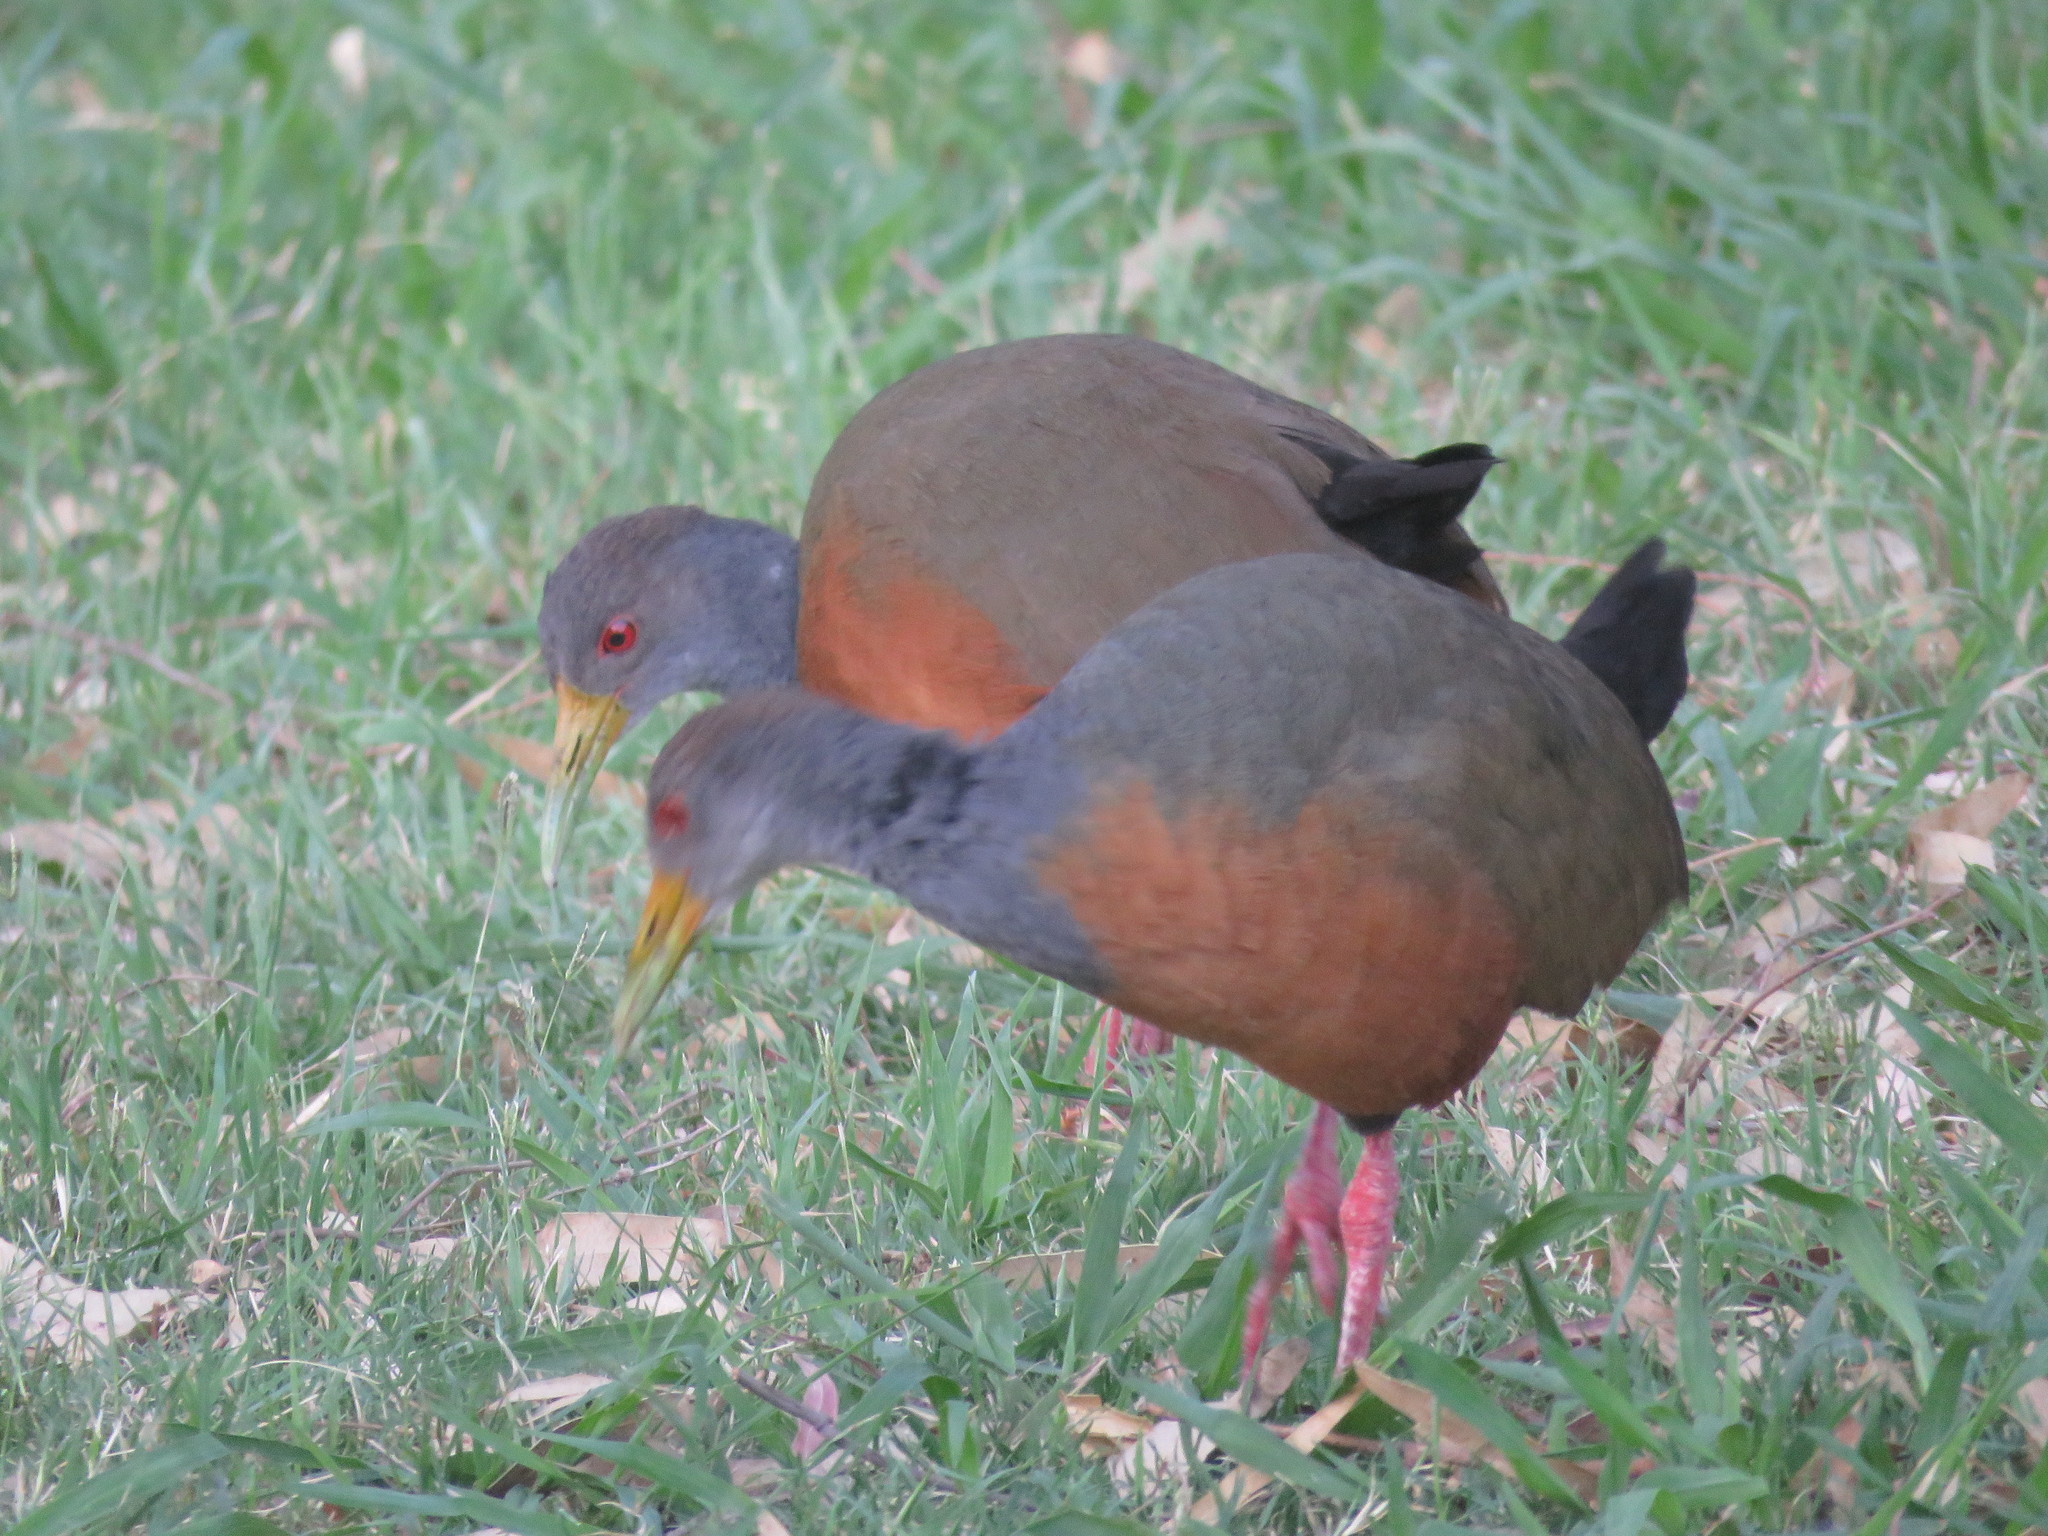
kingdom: Animalia
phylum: Chordata
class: Aves
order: Gruiformes
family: Rallidae
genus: Aramides
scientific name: Aramides cajanea
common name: Gray-necked wood-rail
